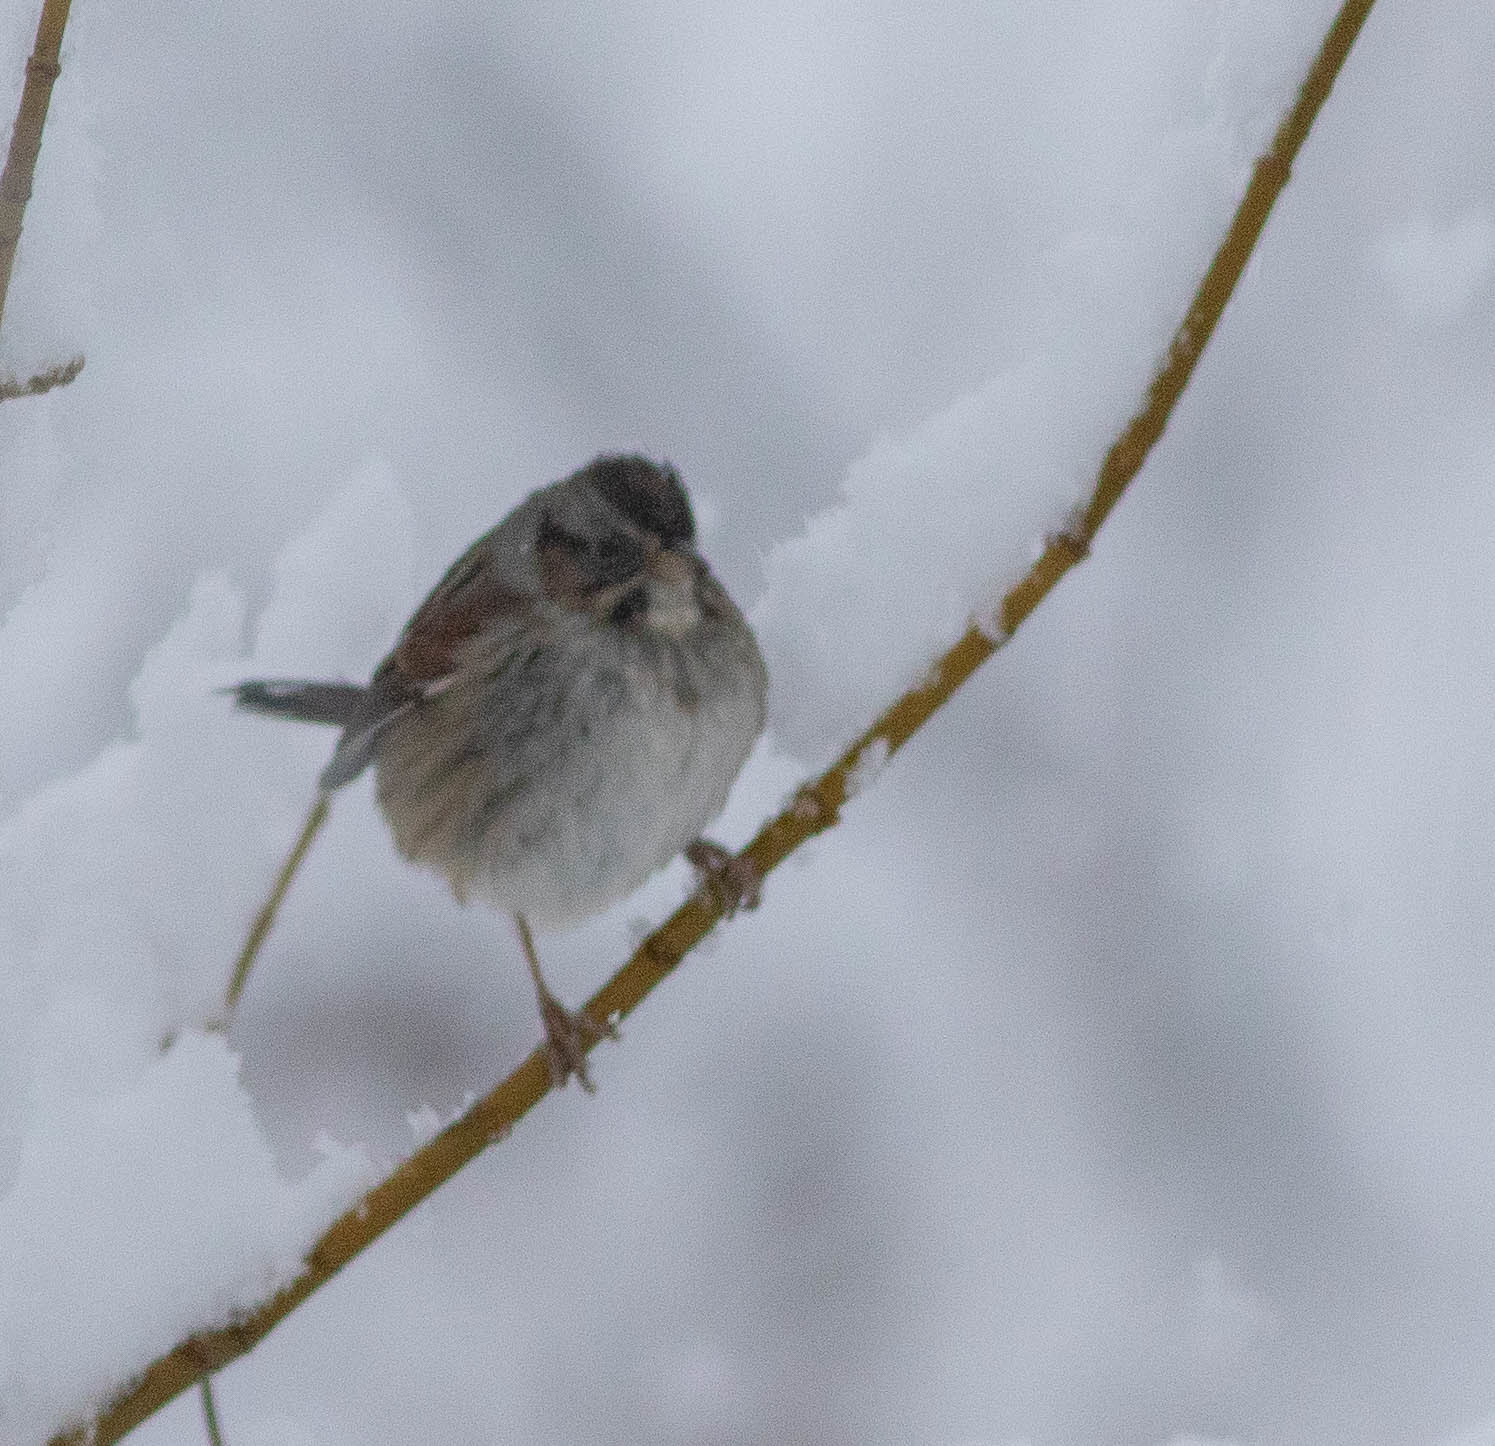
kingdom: Animalia
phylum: Chordata
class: Aves
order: Passeriformes
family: Passerellidae
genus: Melospiza
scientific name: Melospiza georgiana
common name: Swamp sparrow
